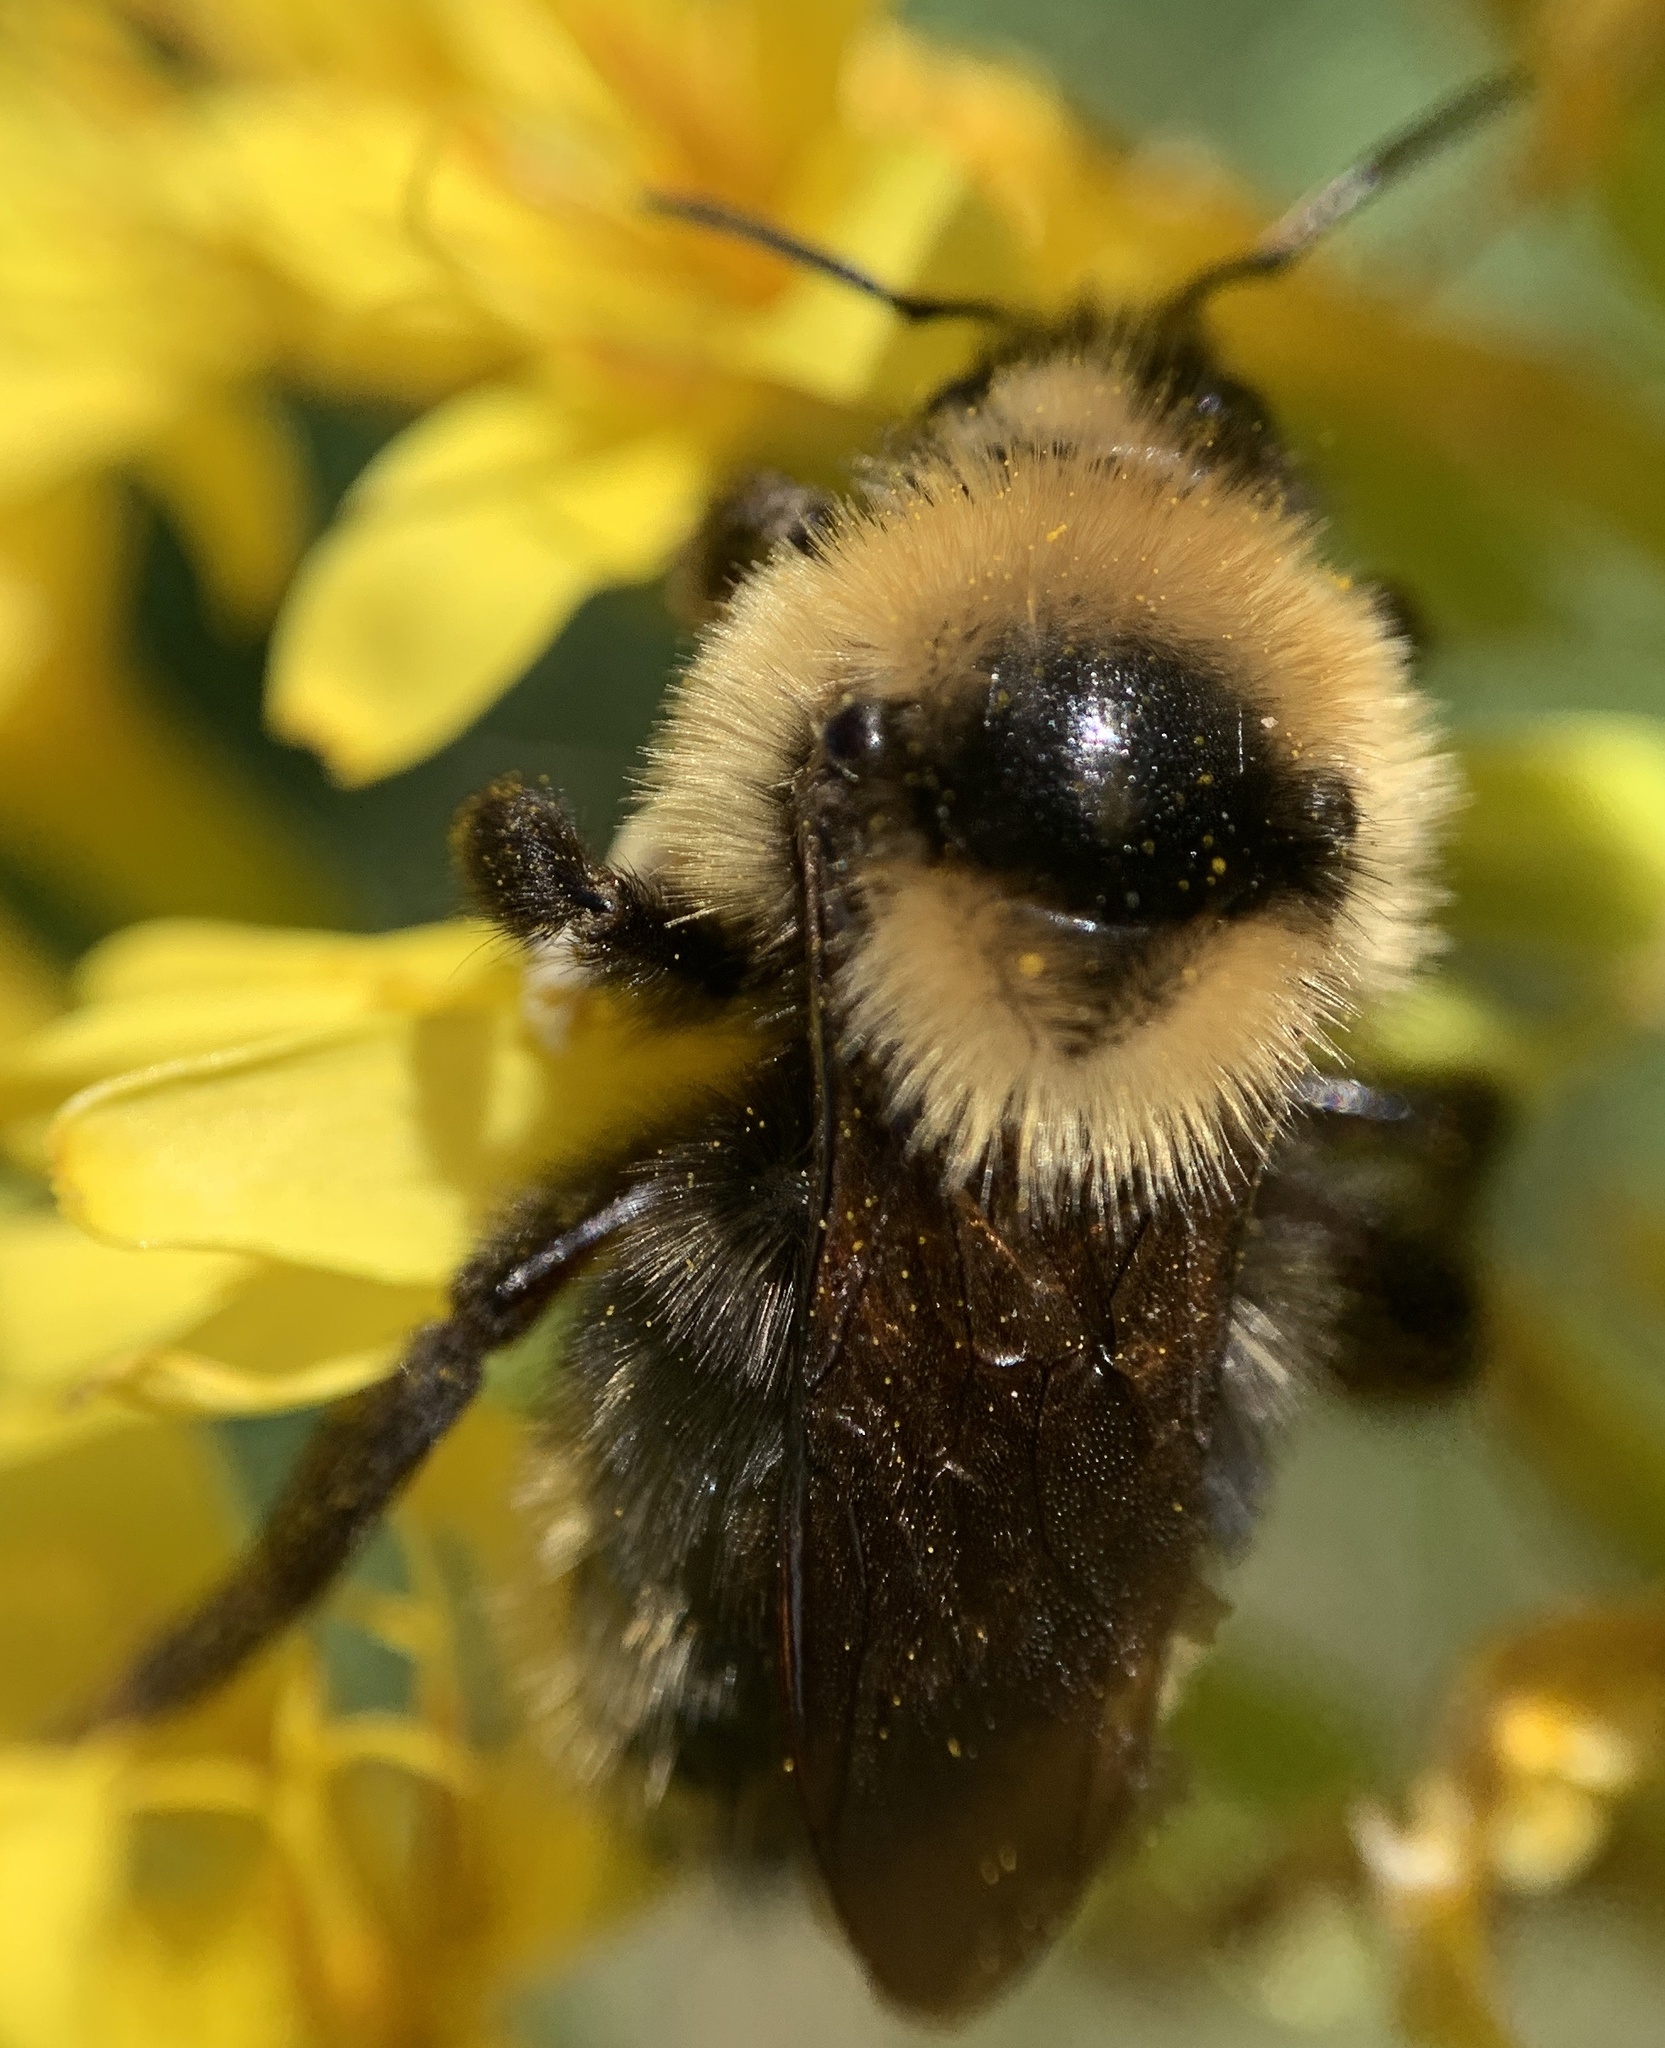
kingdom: Animalia
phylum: Arthropoda
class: Insecta
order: Hymenoptera
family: Apidae
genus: Bombus
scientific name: Bombus
